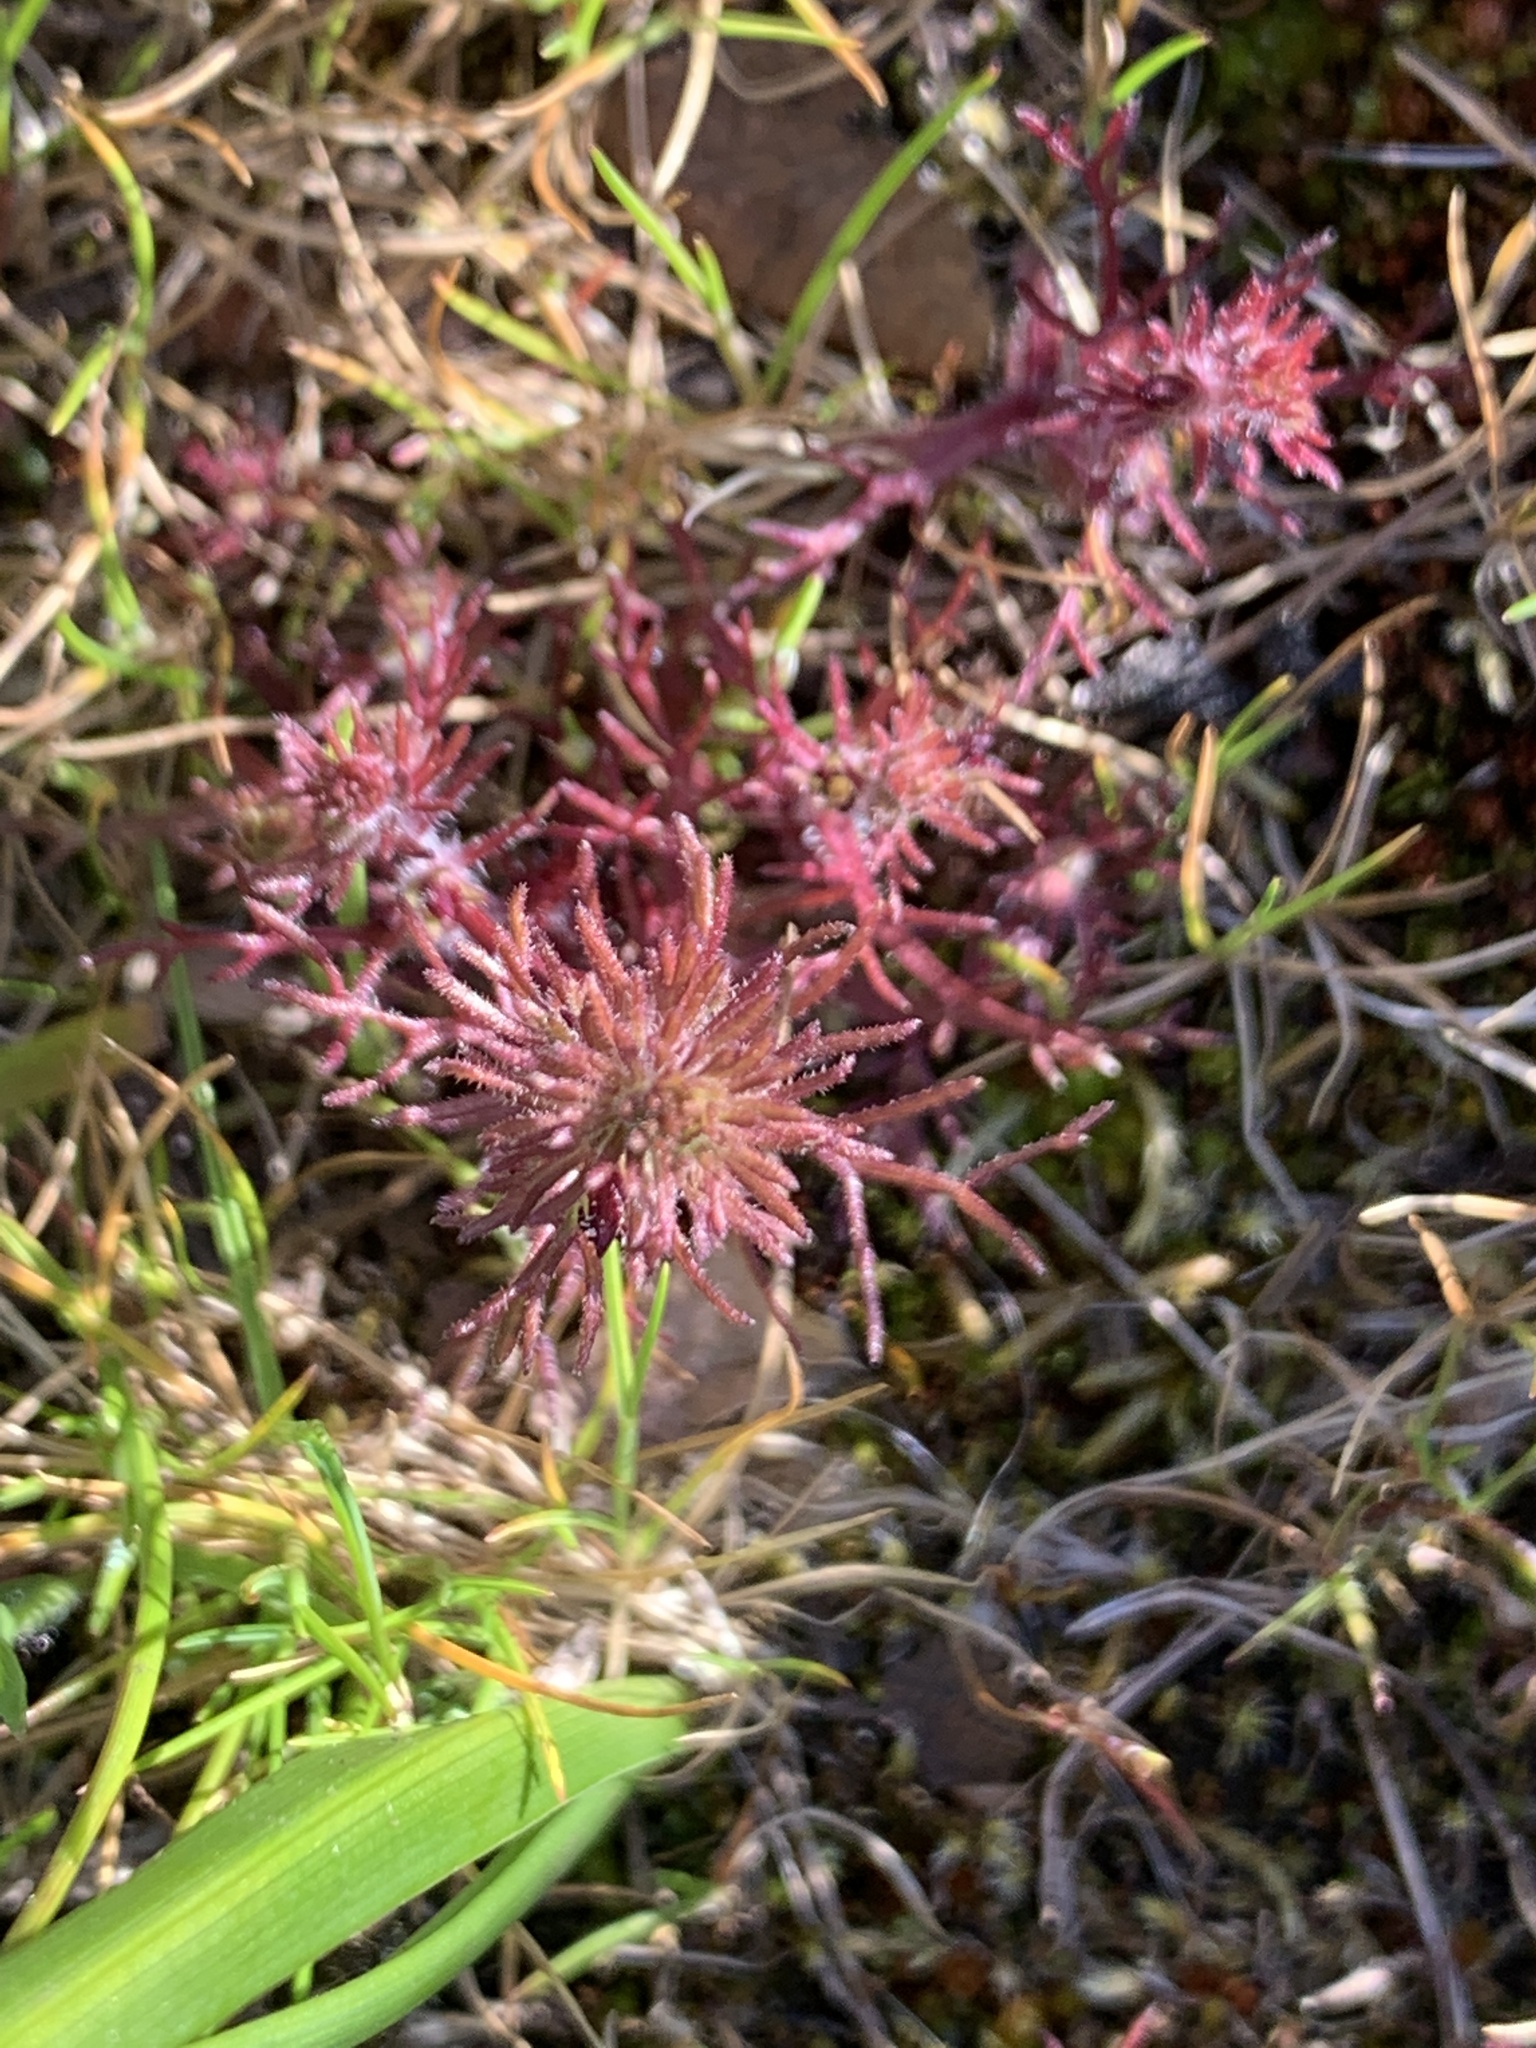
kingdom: Plantae
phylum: Tracheophyta
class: Magnoliopsida
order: Lamiales
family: Orobanchaceae
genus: Triphysaria
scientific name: Triphysaria pusilla
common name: Dwarf false owl-clover
